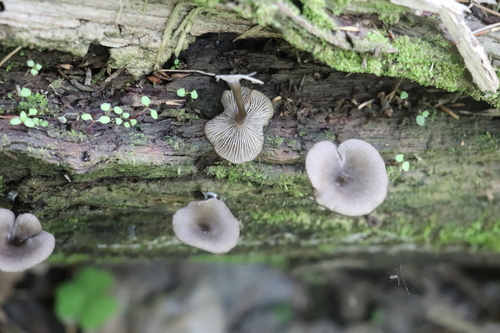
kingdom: Fungi
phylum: Basidiomycota
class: Agaricomycetes
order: Agaricales
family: Hygrophoraceae
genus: Arrhenia
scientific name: Arrhenia epichysium
